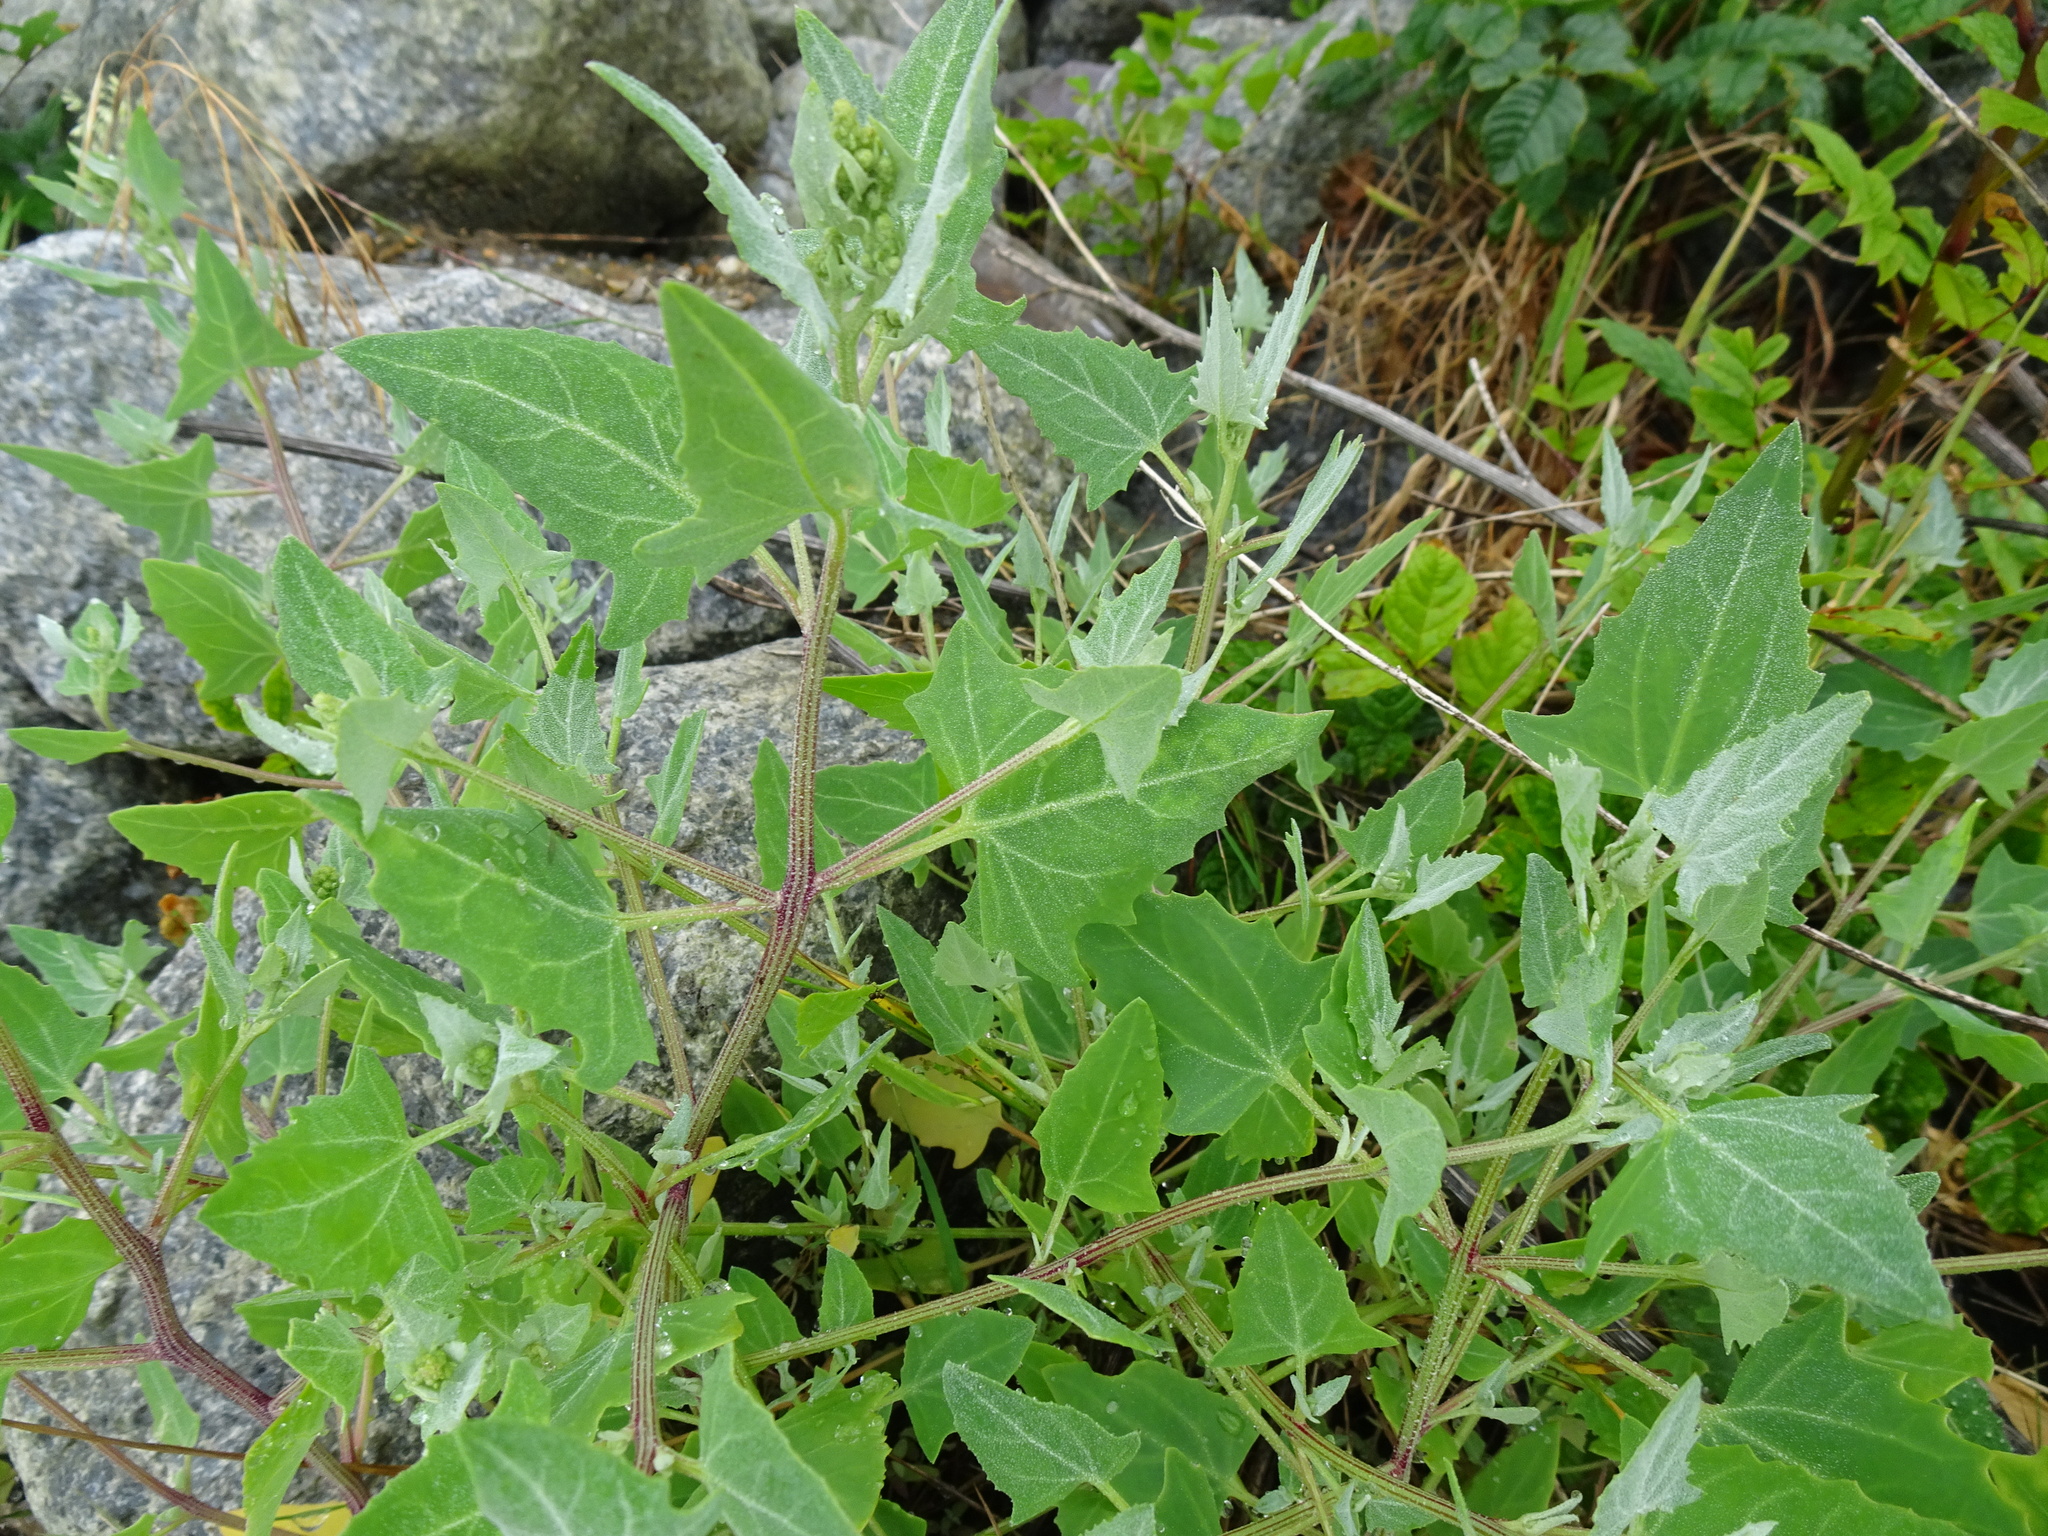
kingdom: Plantae
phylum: Tracheophyta
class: Magnoliopsida
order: Caryophyllales
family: Amaranthaceae
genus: Atriplex
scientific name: Atriplex prostrata
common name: Spear-leaved orache
